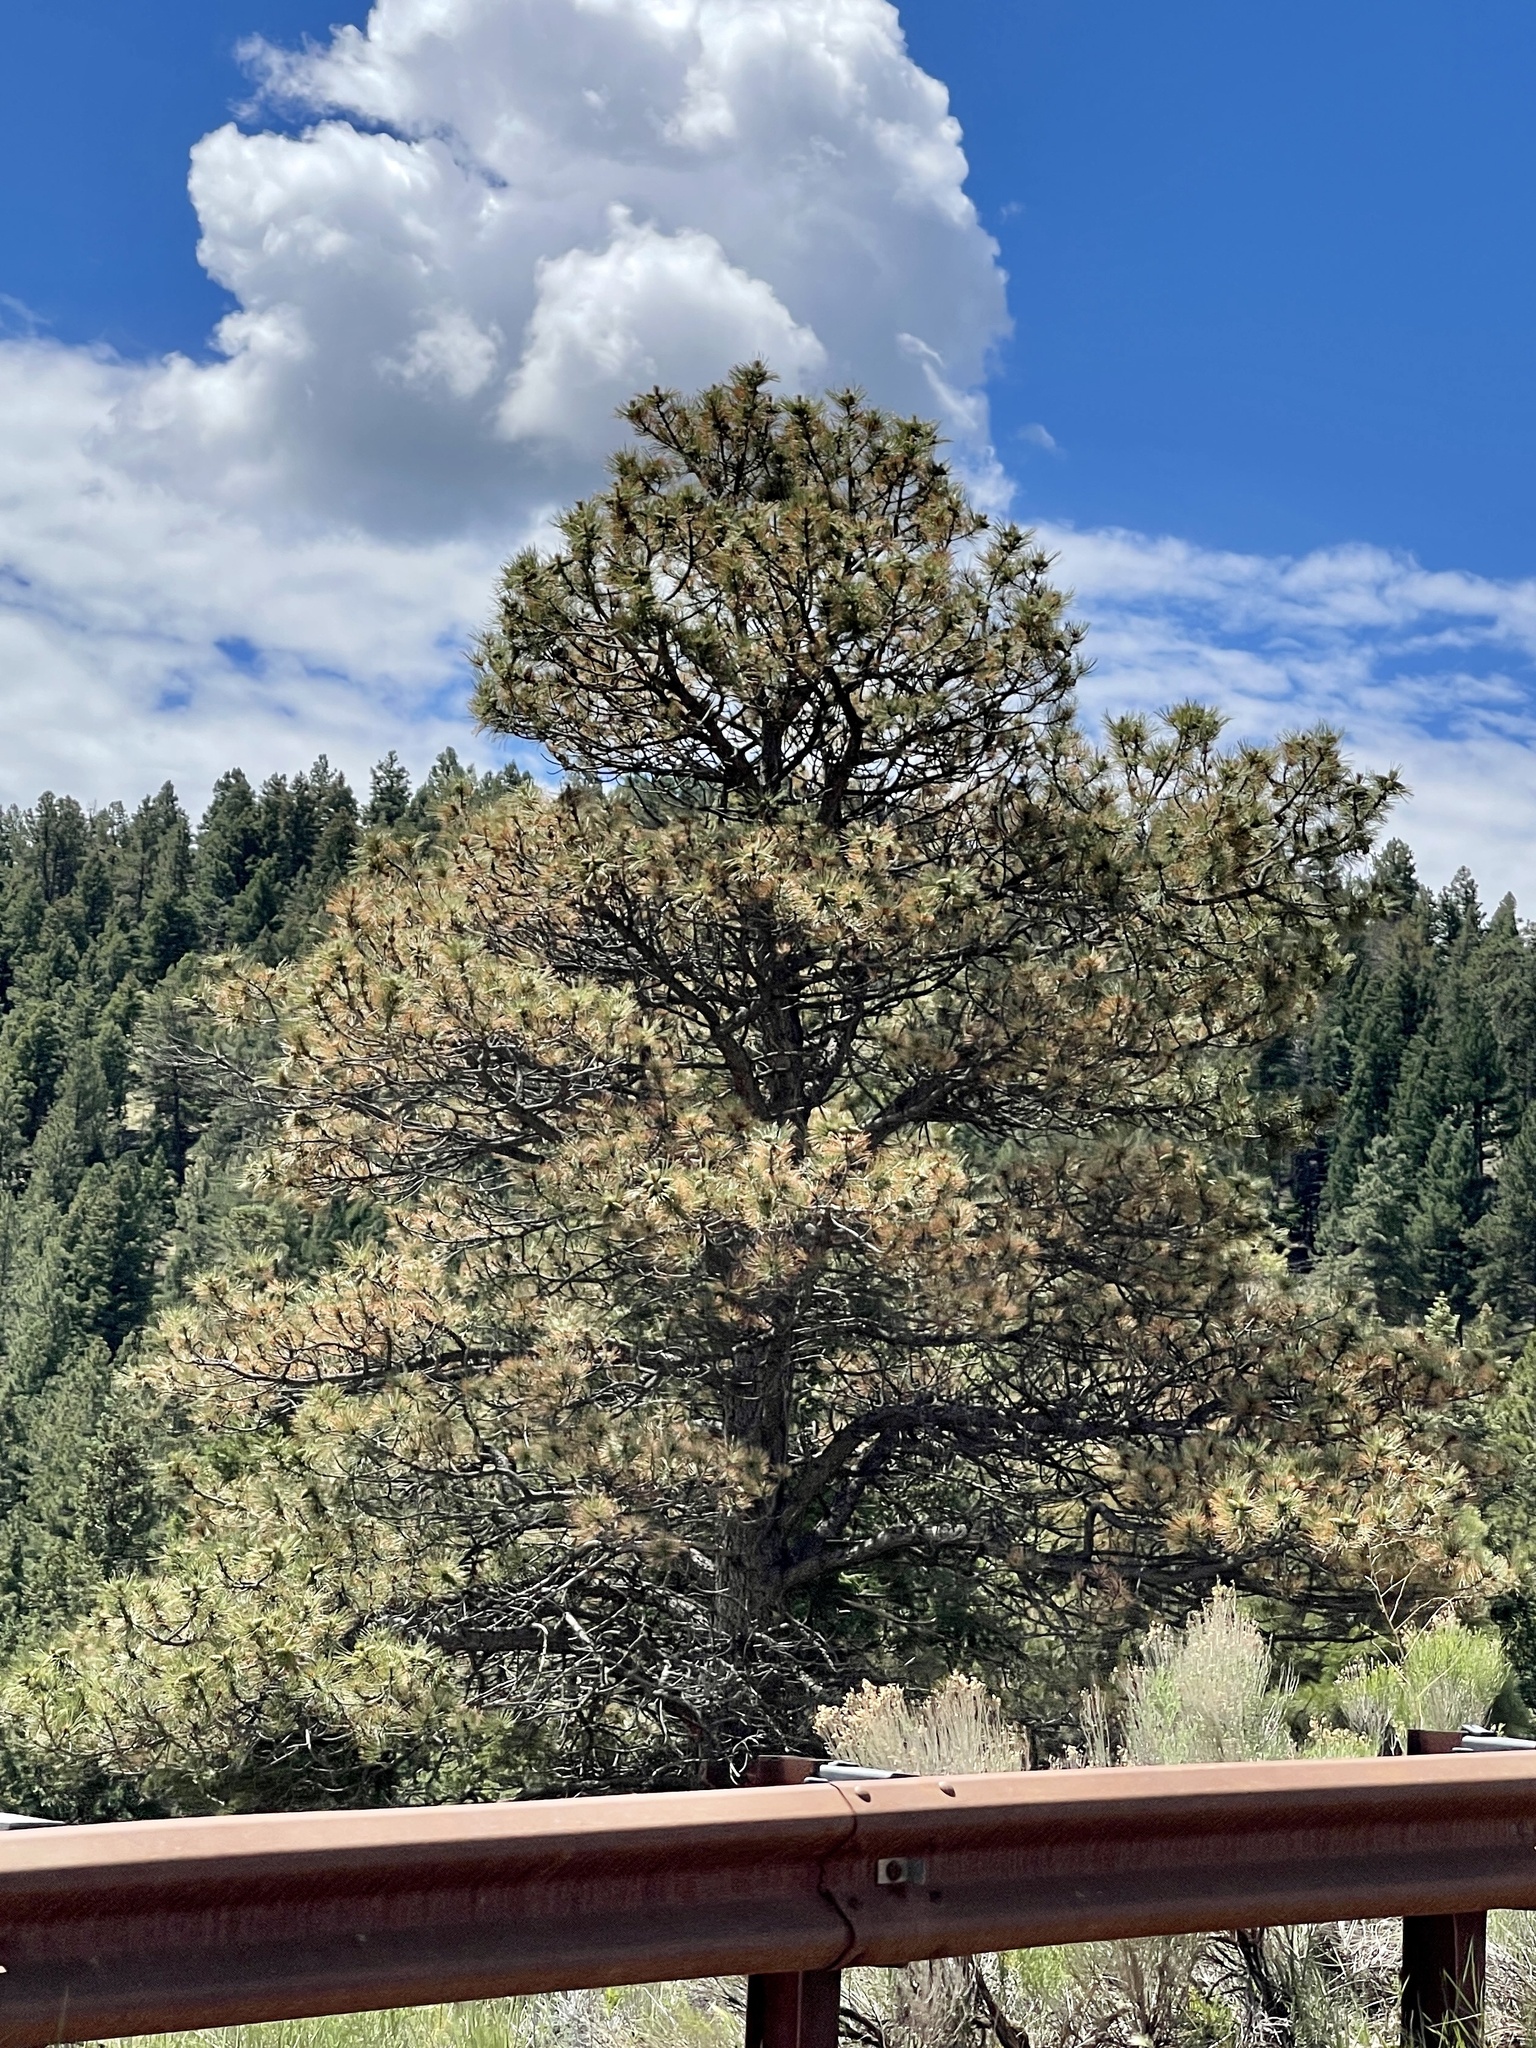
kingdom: Plantae
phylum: Tracheophyta
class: Pinopsida
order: Pinales
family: Pinaceae
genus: Pinus
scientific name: Pinus ponderosa
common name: Western yellow-pine
